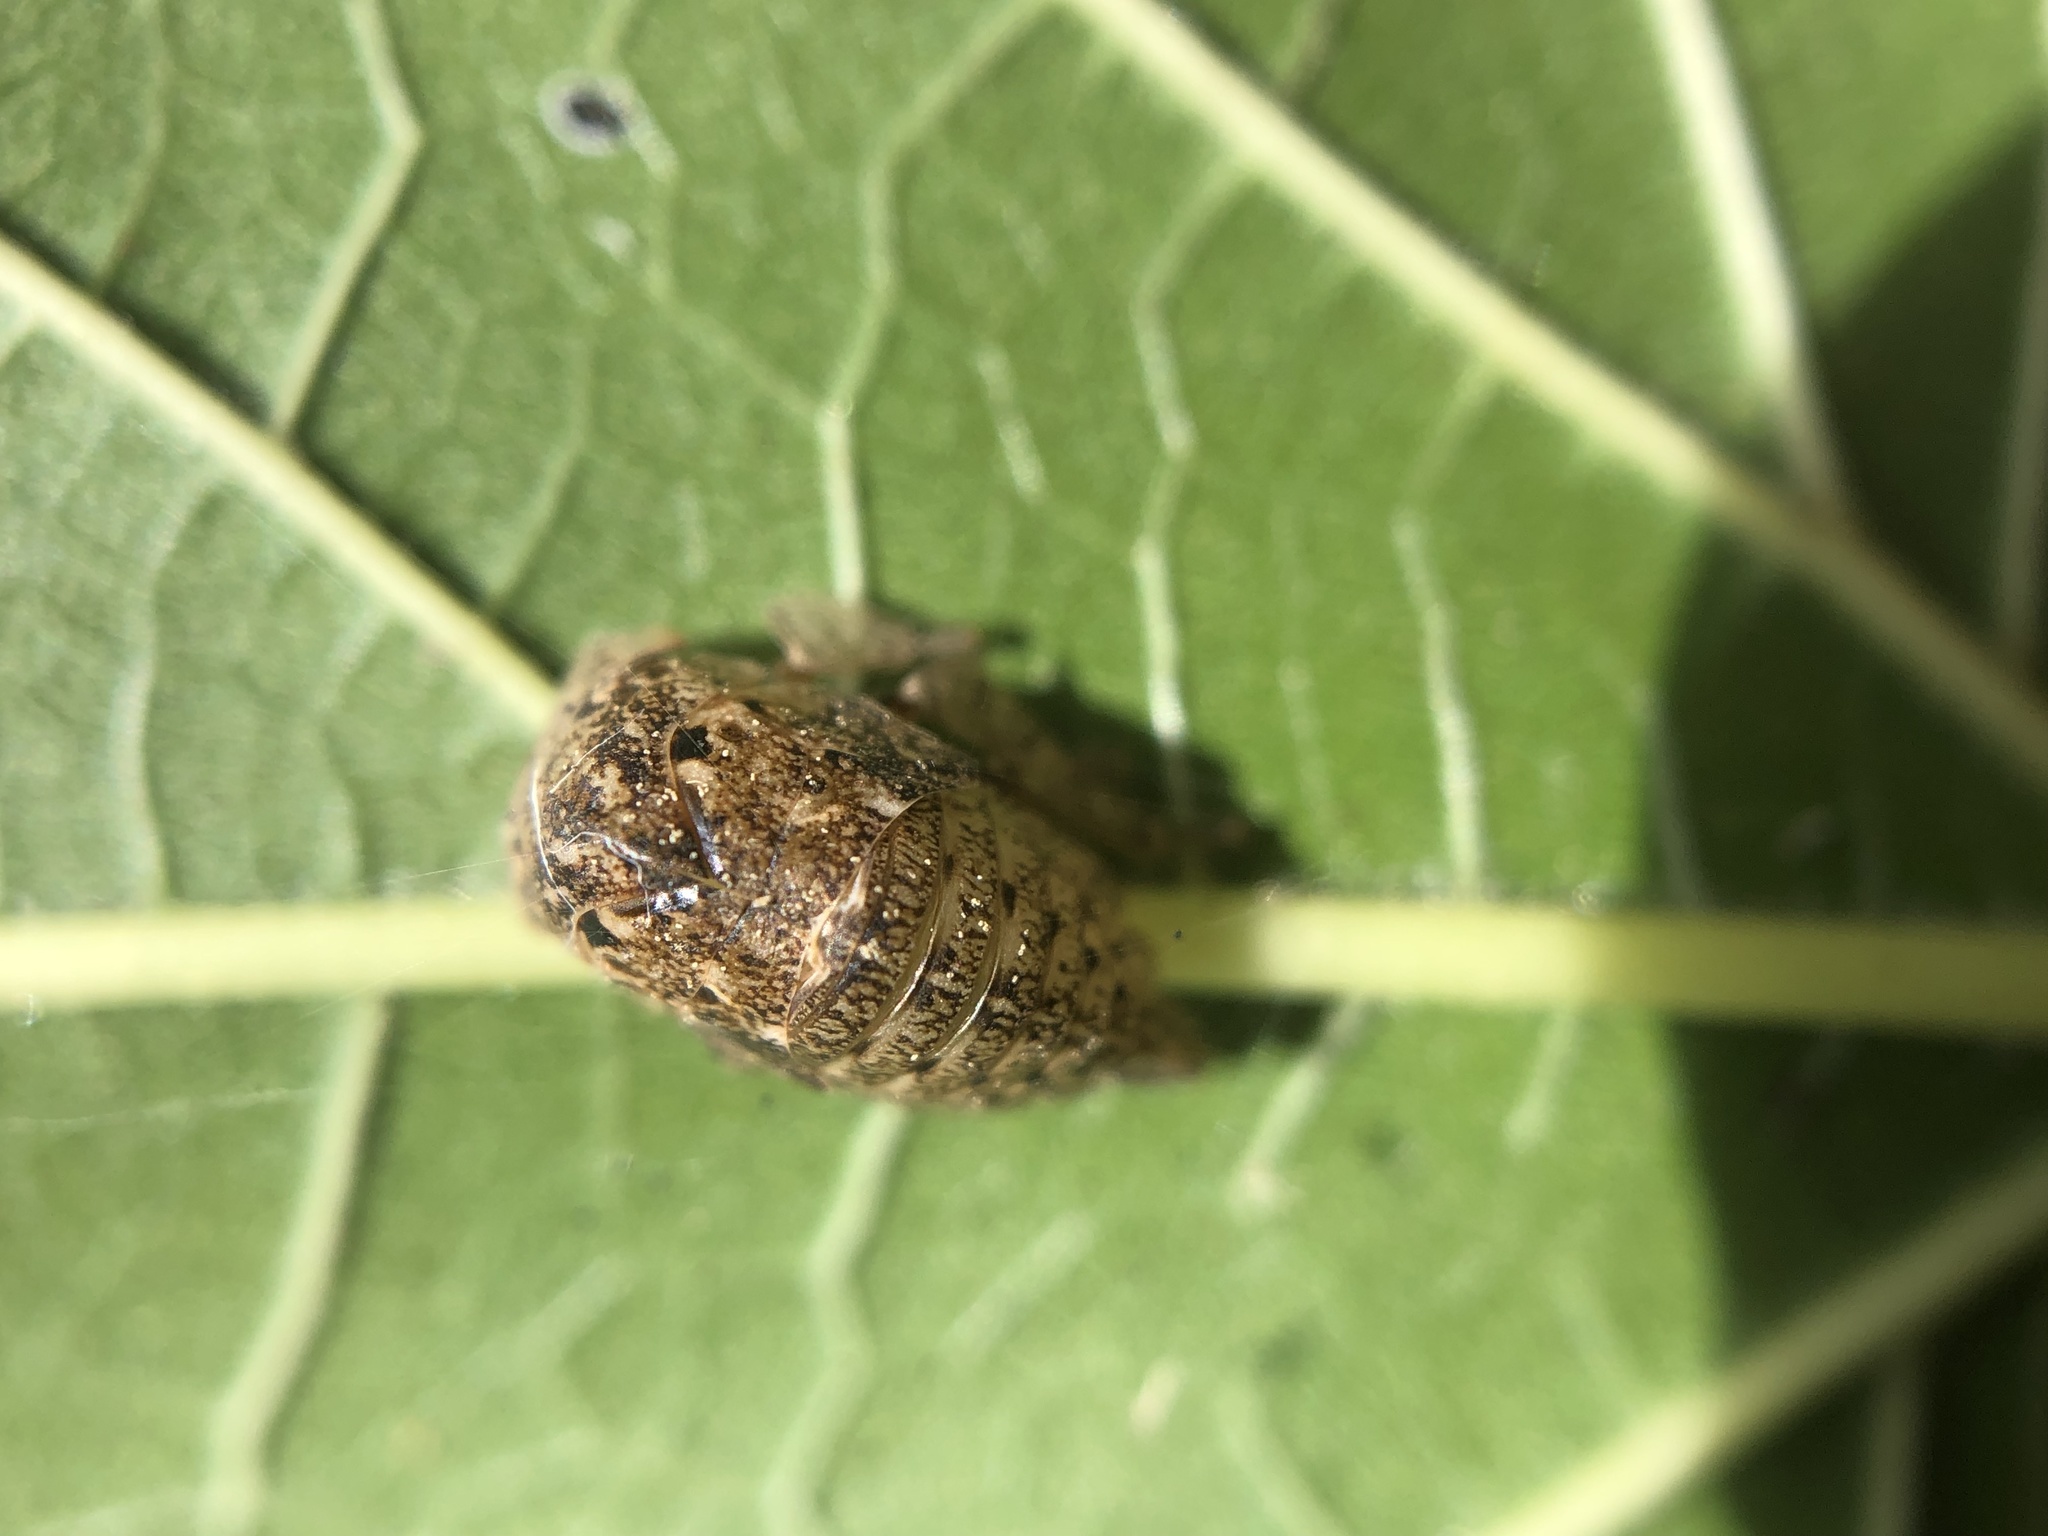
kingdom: Animalia
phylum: Arthropoda
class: Insecta
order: Hemiptera
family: Membracidae
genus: Hebetica
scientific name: Hebetica
